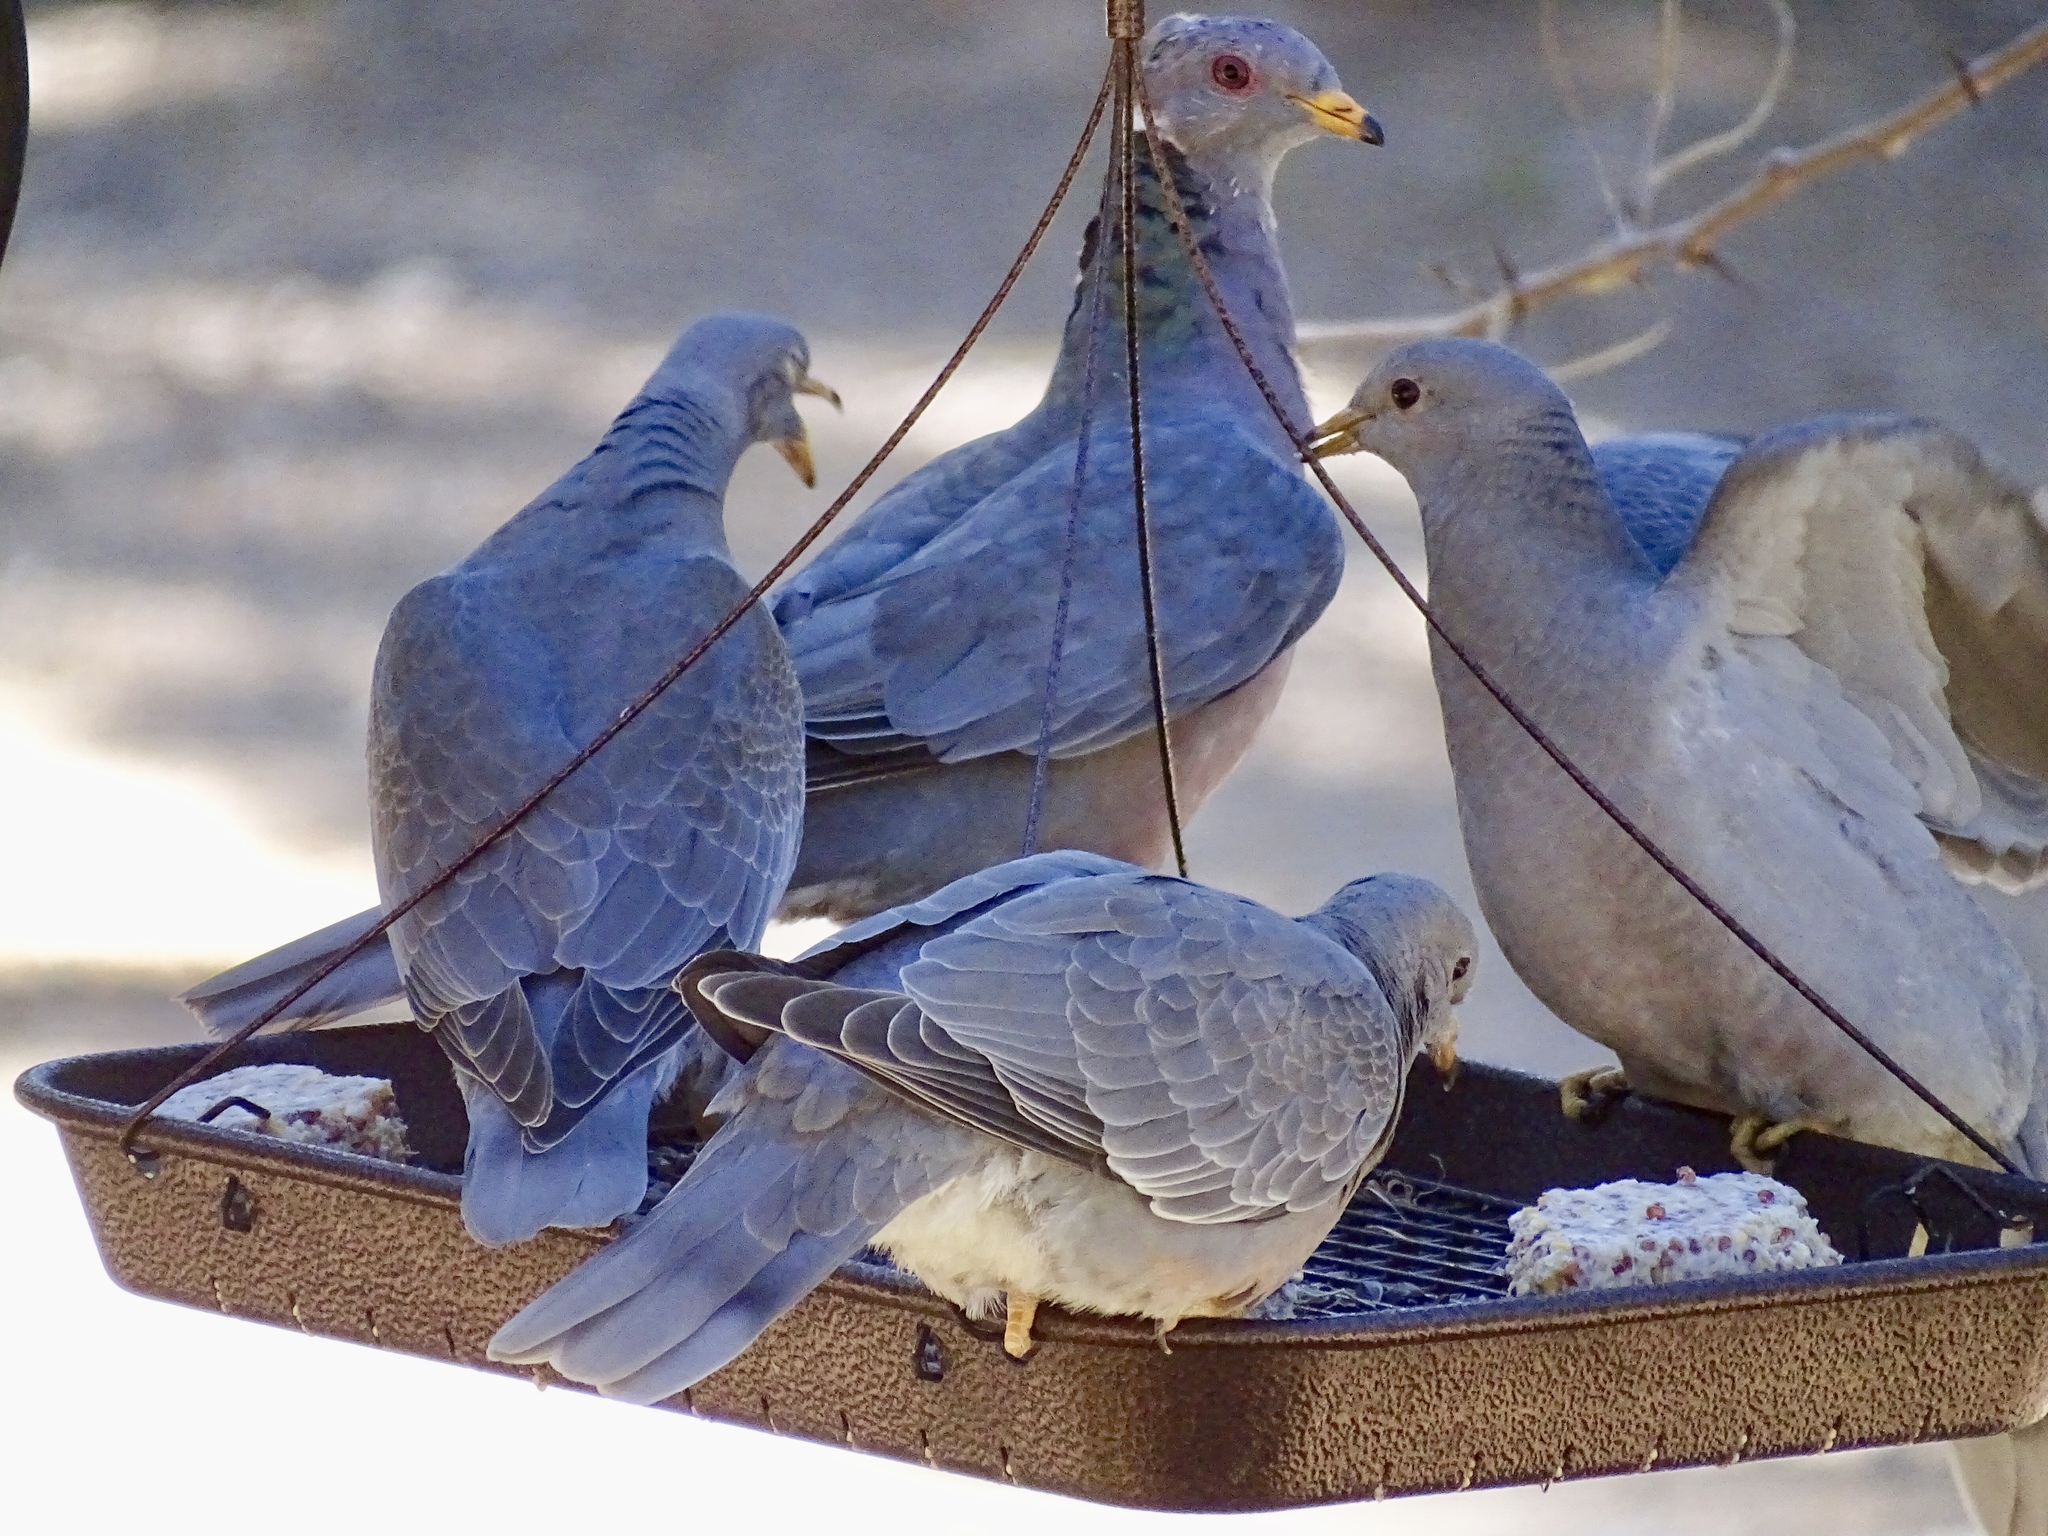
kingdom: Animalia
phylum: Chordata
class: Aves
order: Columbiformes
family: Columbidae
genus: Patagioenas
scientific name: Patagioenas fasciata
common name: Band-tailed pigeon
